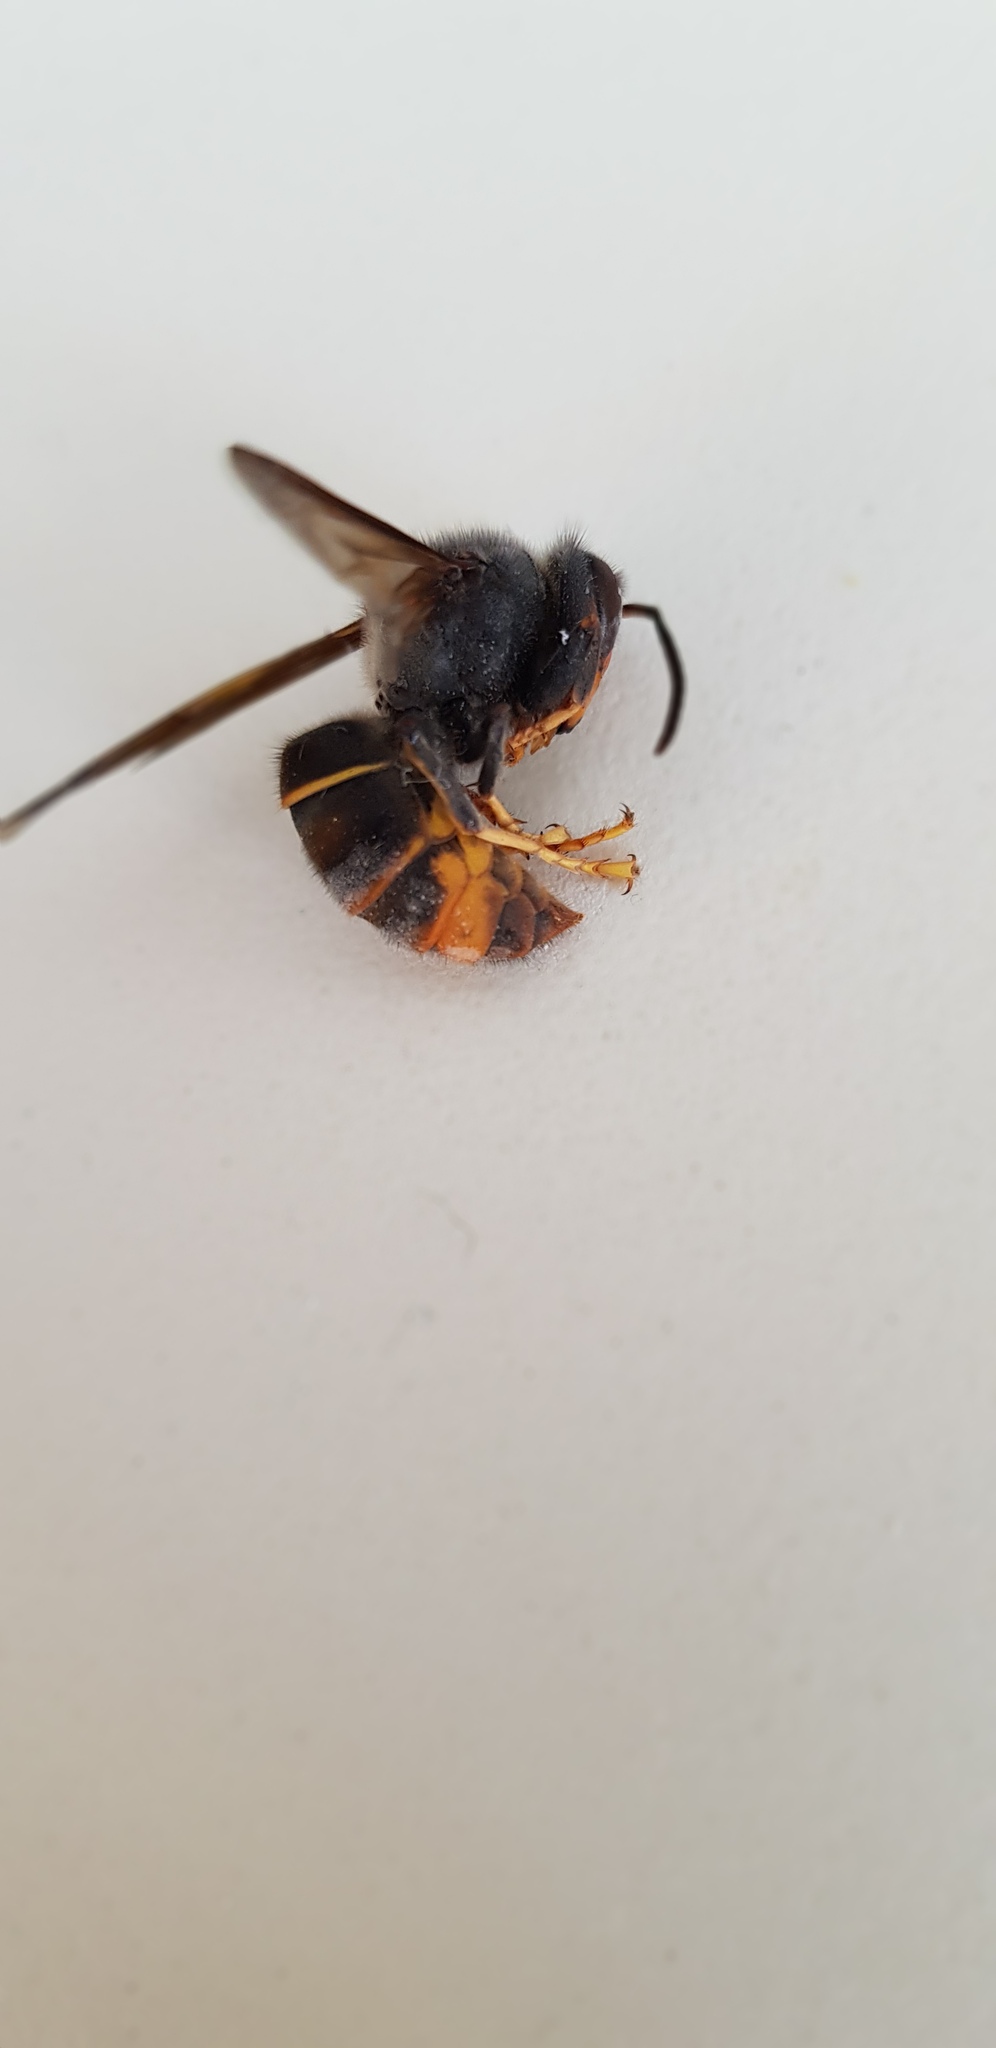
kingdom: Animalia
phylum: Arthropoda
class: Insecta
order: Hymenoptera
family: Vespidae
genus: Vespa
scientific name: Vespa velutina
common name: Asian hornet
